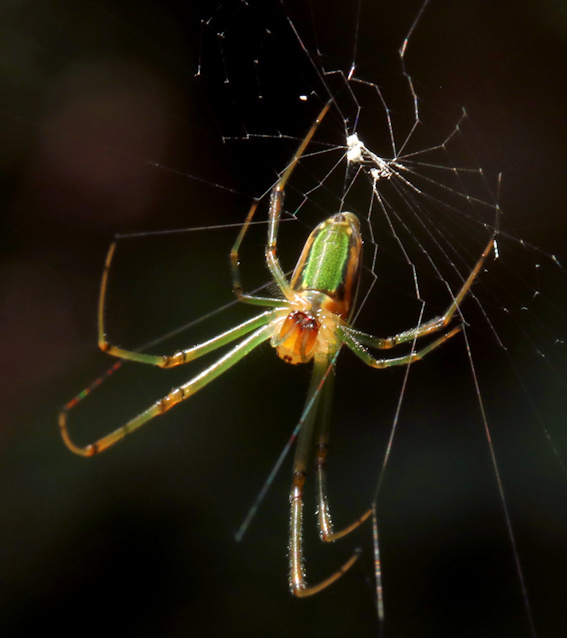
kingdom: Animalia
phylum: Arthropoda
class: Arachnida
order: Araneae
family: Tetragnathidae
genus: Leucauge
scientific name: Leucauge levanderi
